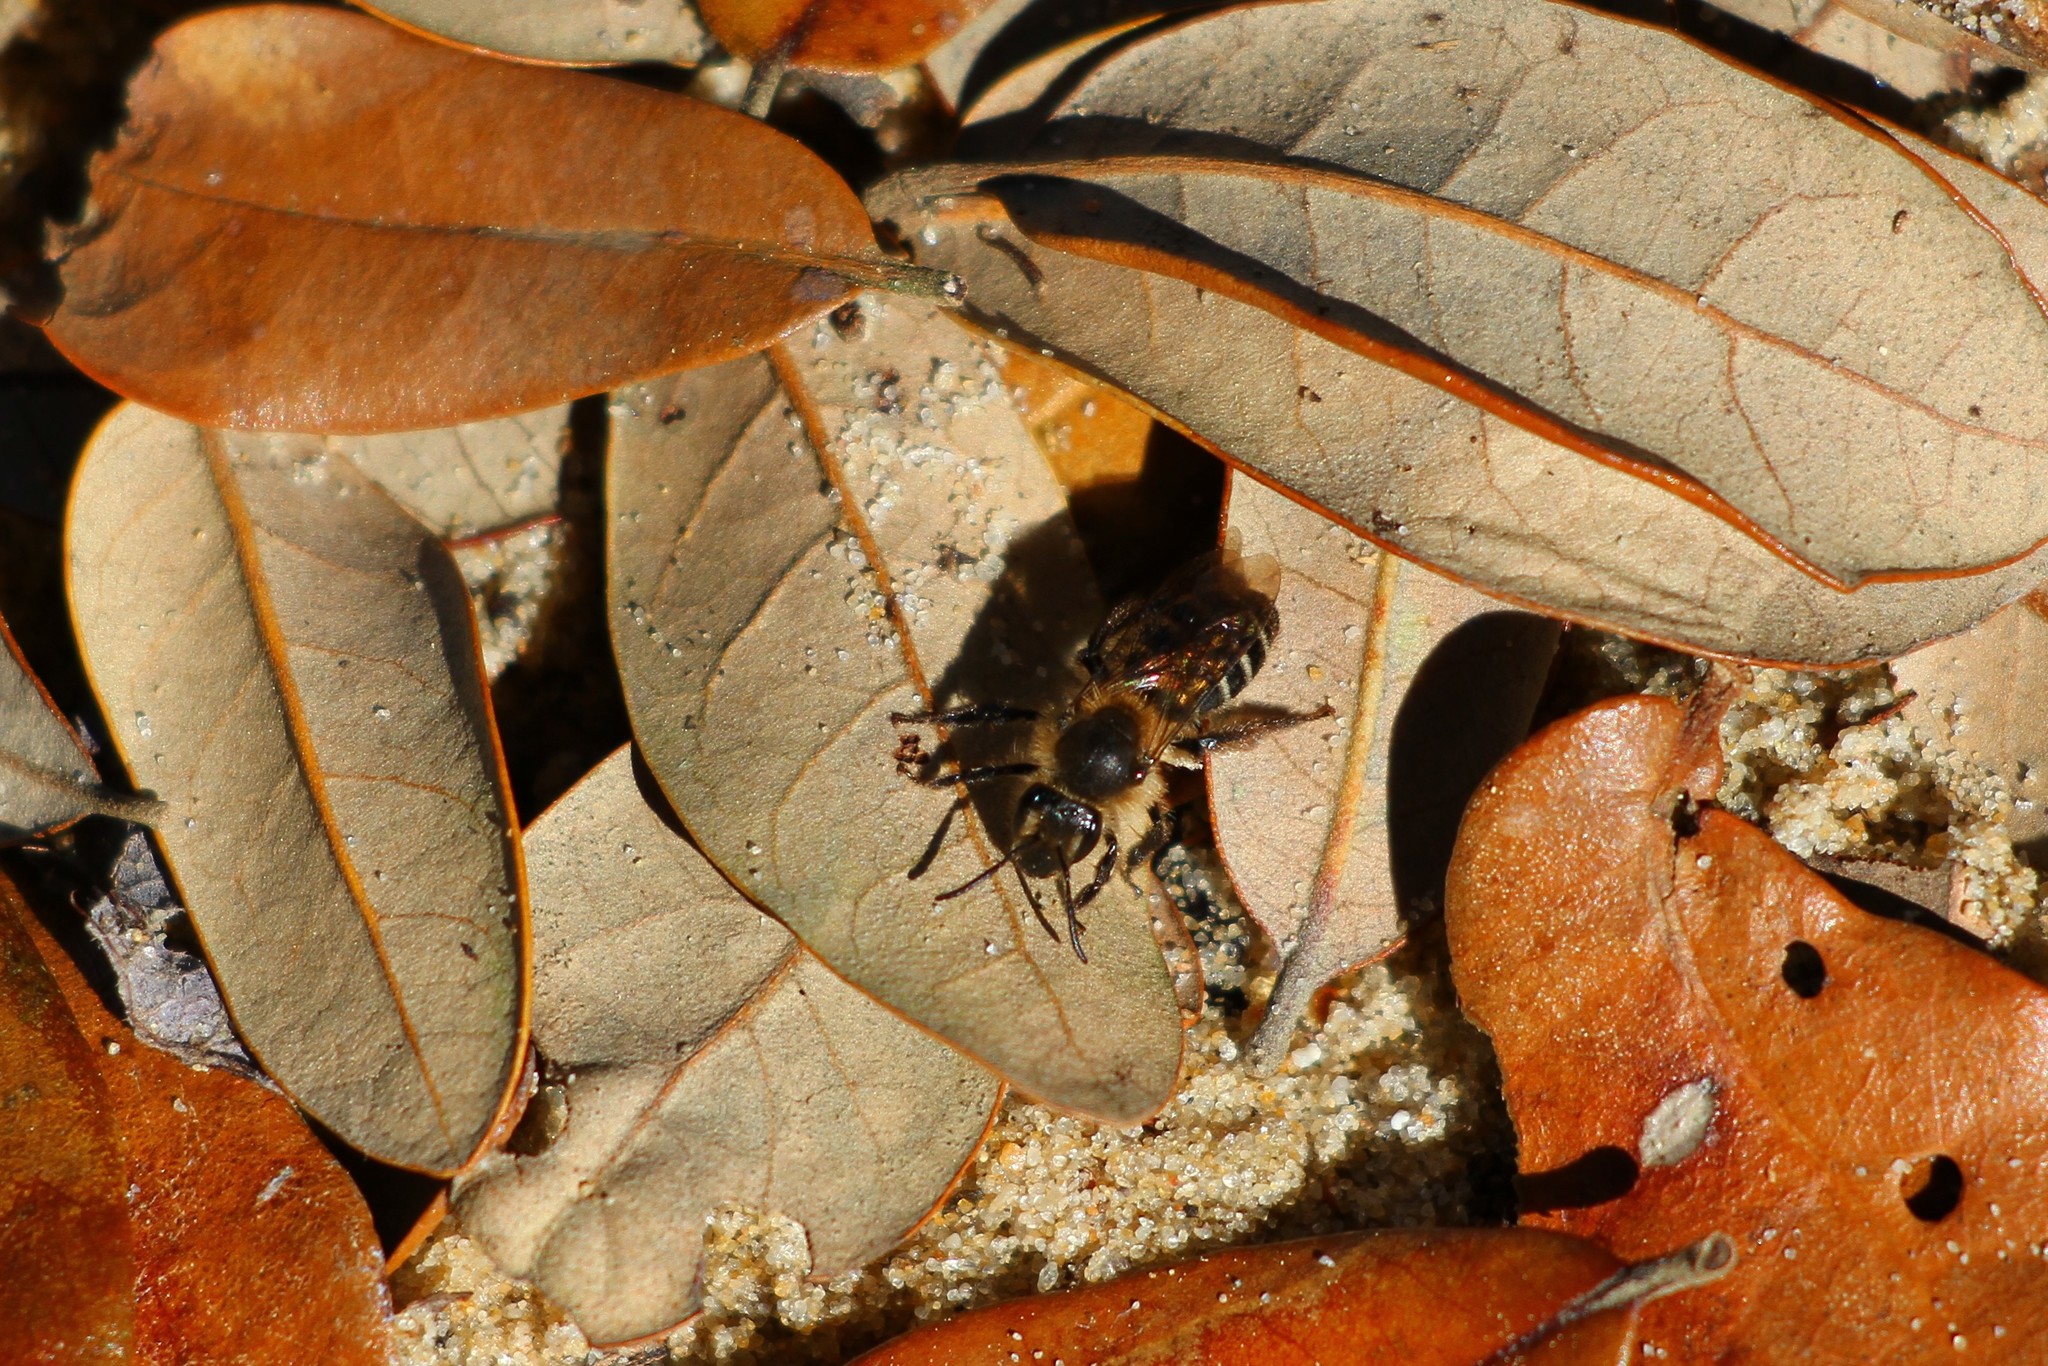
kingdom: Animalia
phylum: Arthropoda
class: Insecta
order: Hymenoptera
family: Andrenidae
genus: Andrena
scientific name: Andrena bradleyi
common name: Bradley's mining bee
